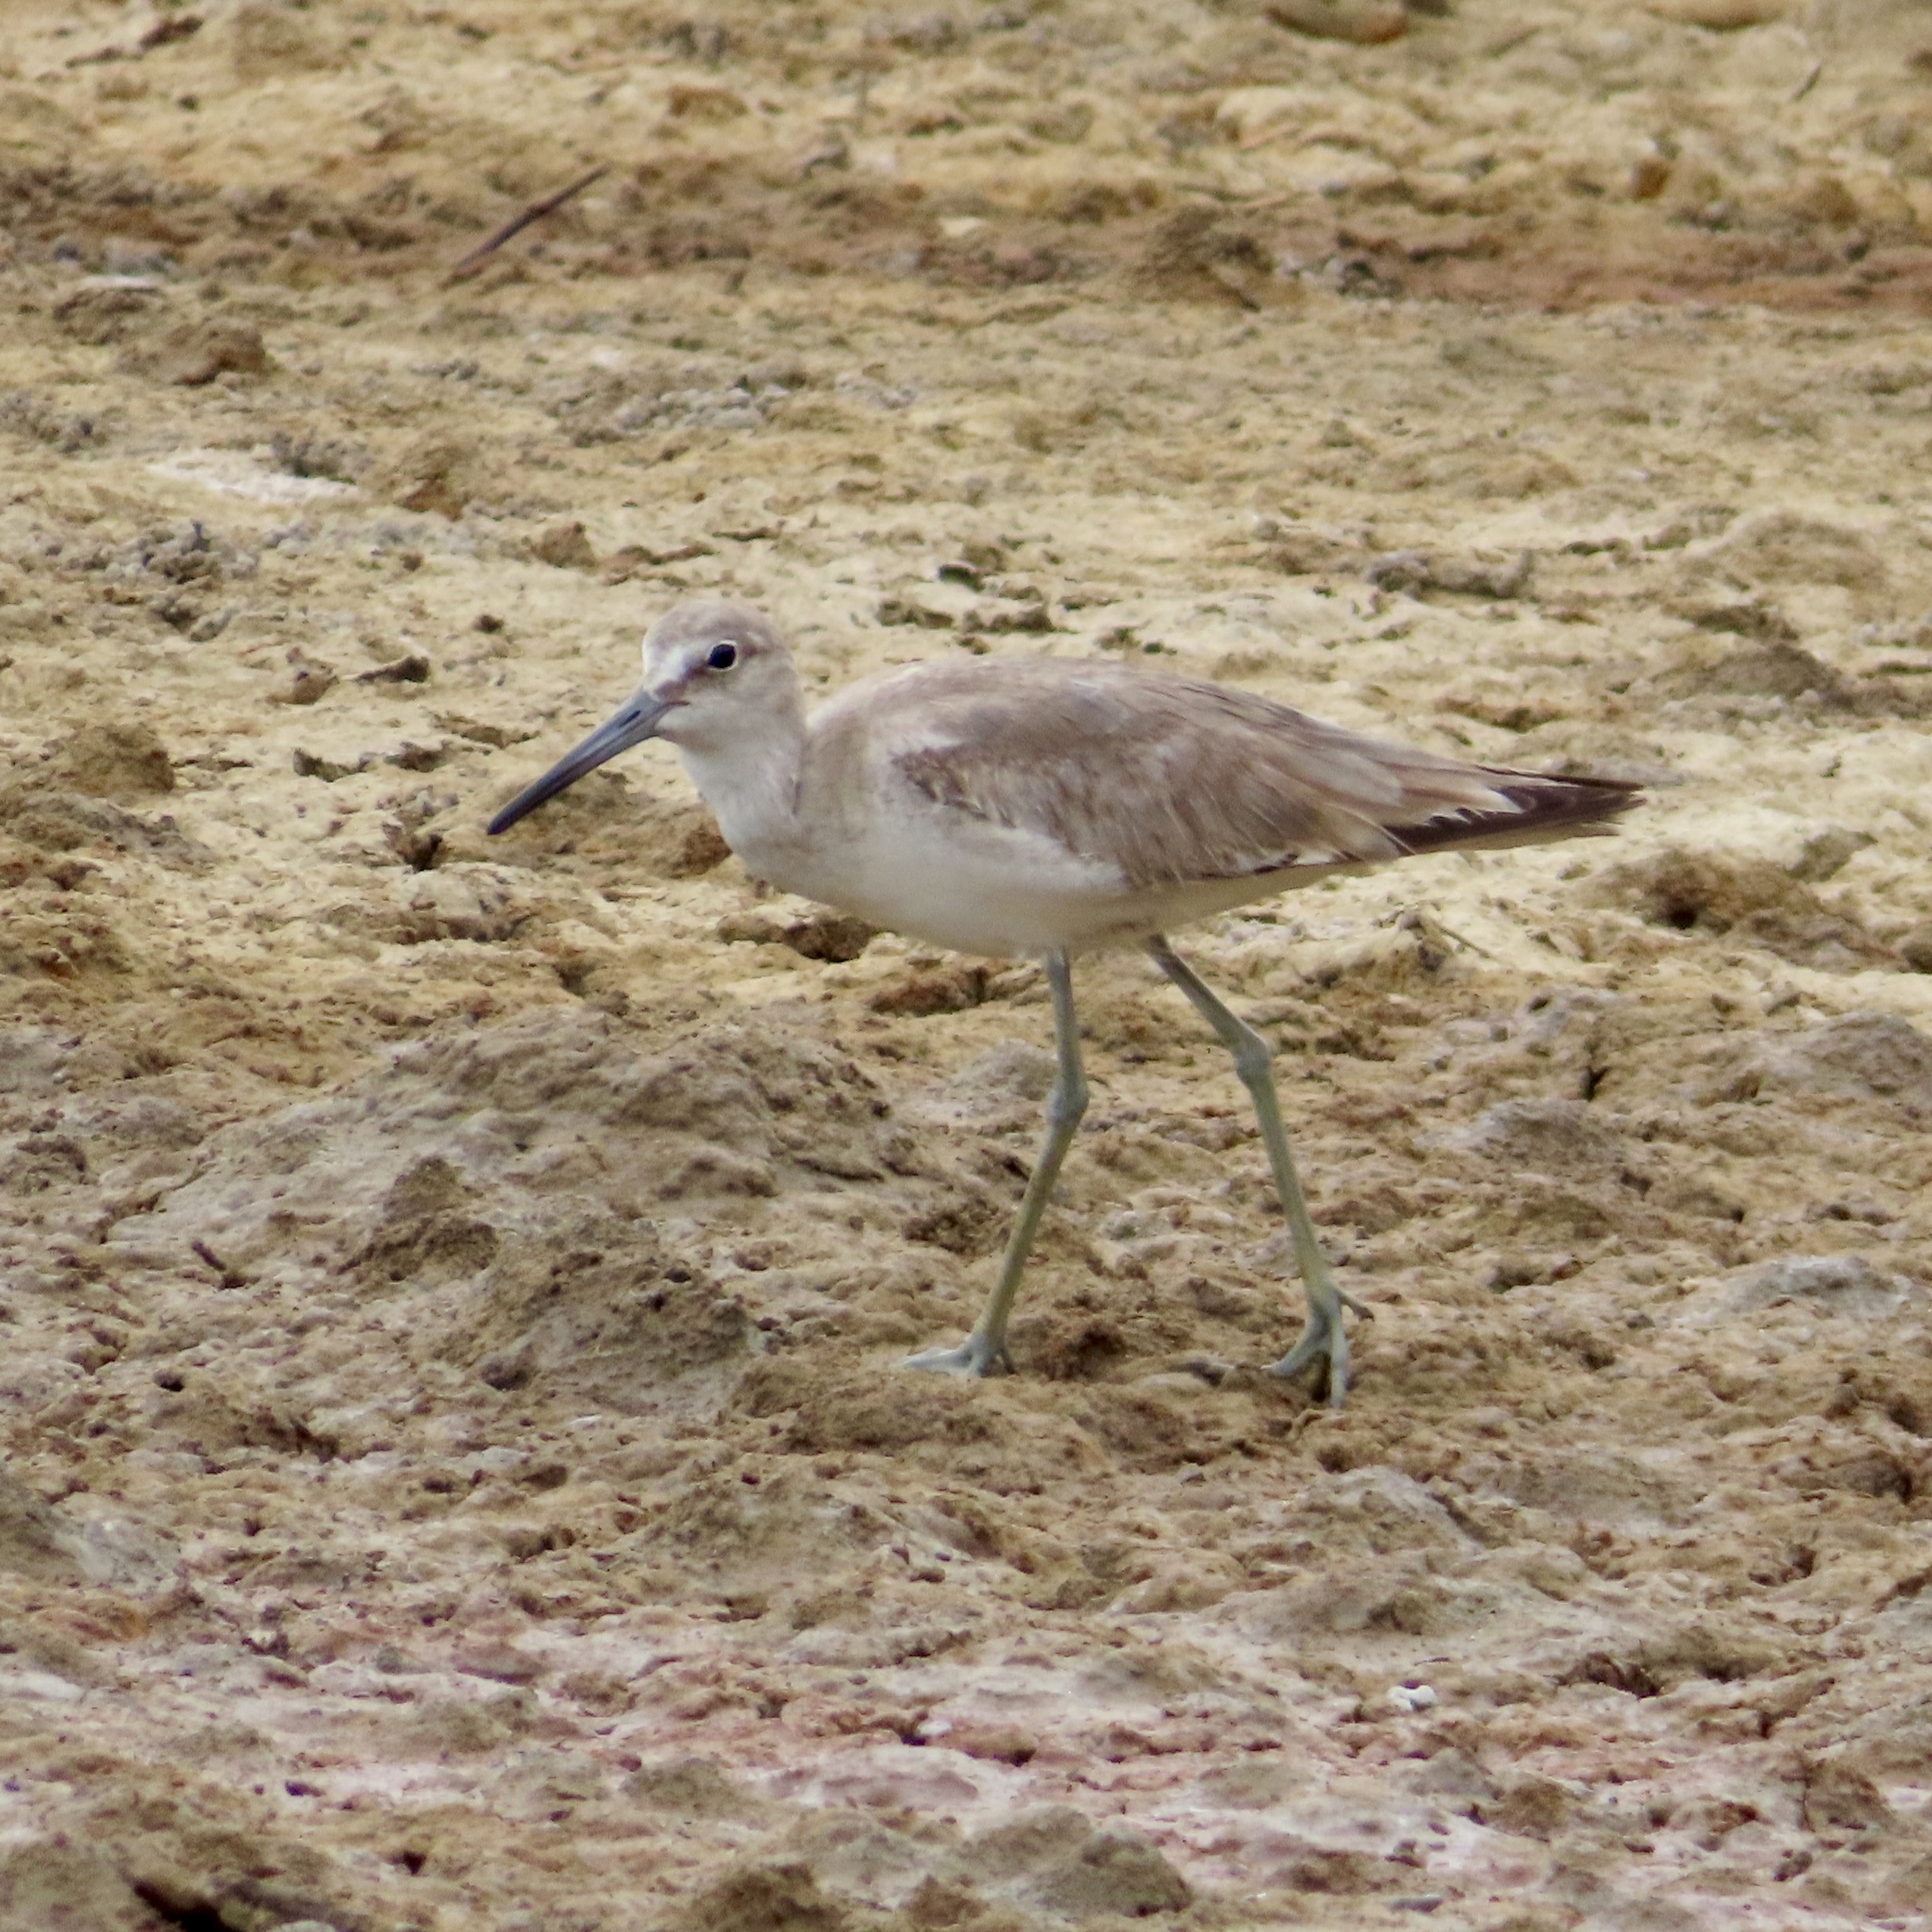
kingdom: Animalia
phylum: Chordata
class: Aves
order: Charadriiformes
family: Scolopacidae
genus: Tringa
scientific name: Tringa semipalmata
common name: Willet
